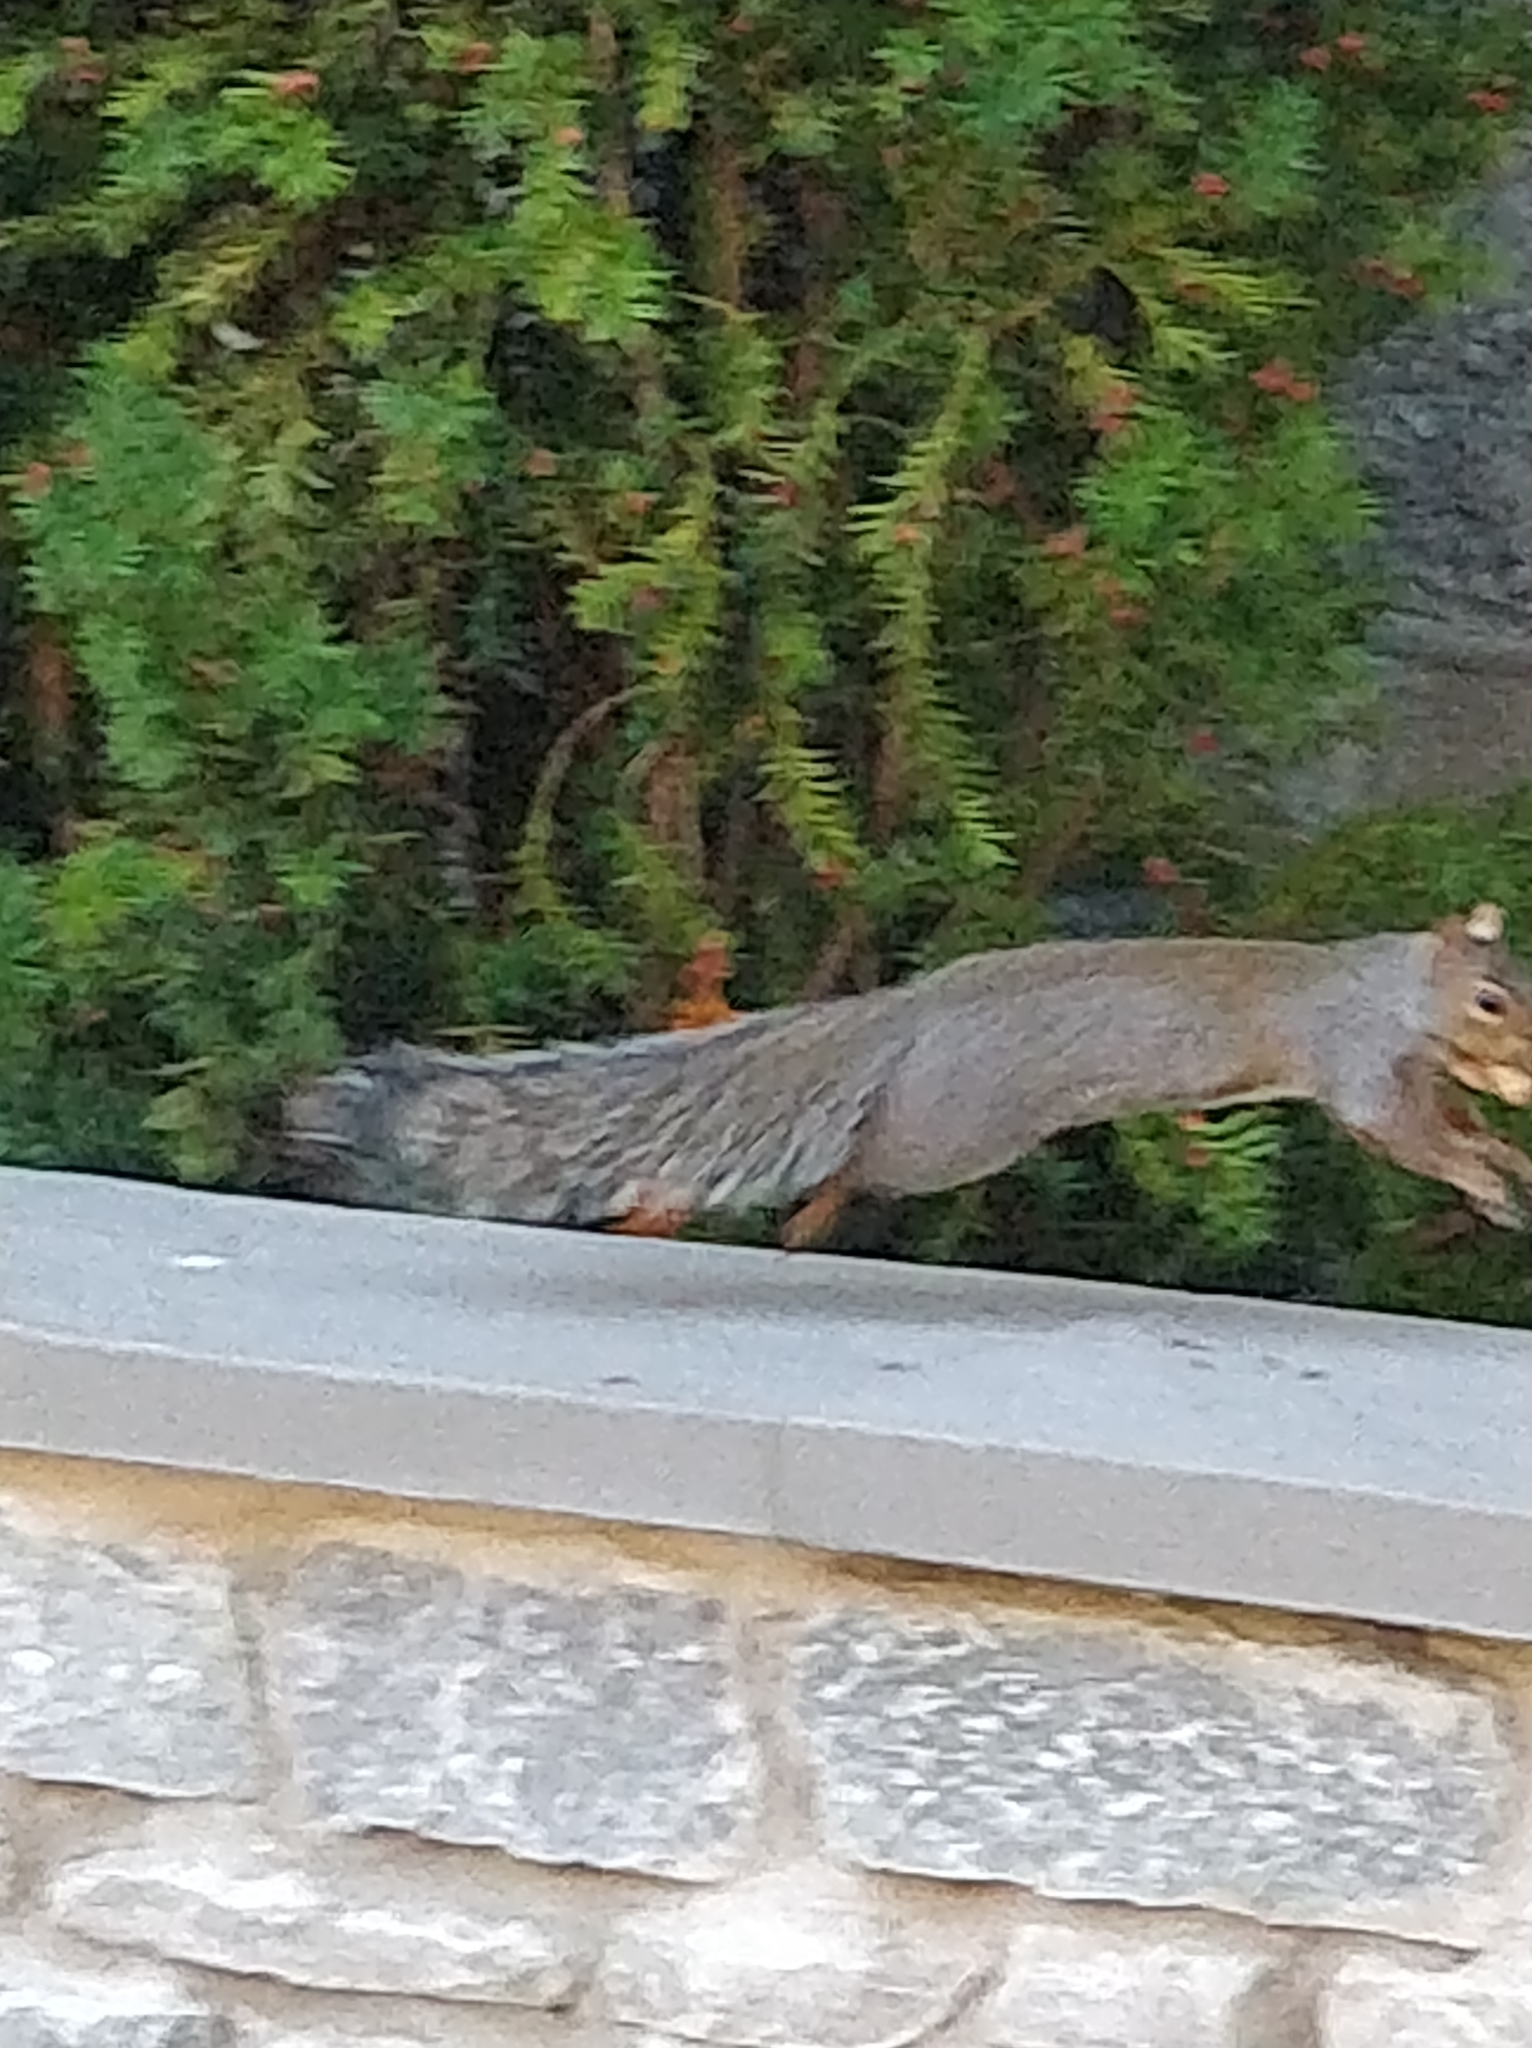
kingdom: Animalia
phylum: Chordata
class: Mammalia
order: Rodentia
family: Sciuridae
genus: Sciurus
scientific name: Sciurus carolinensis
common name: Eastern gray squirrel
